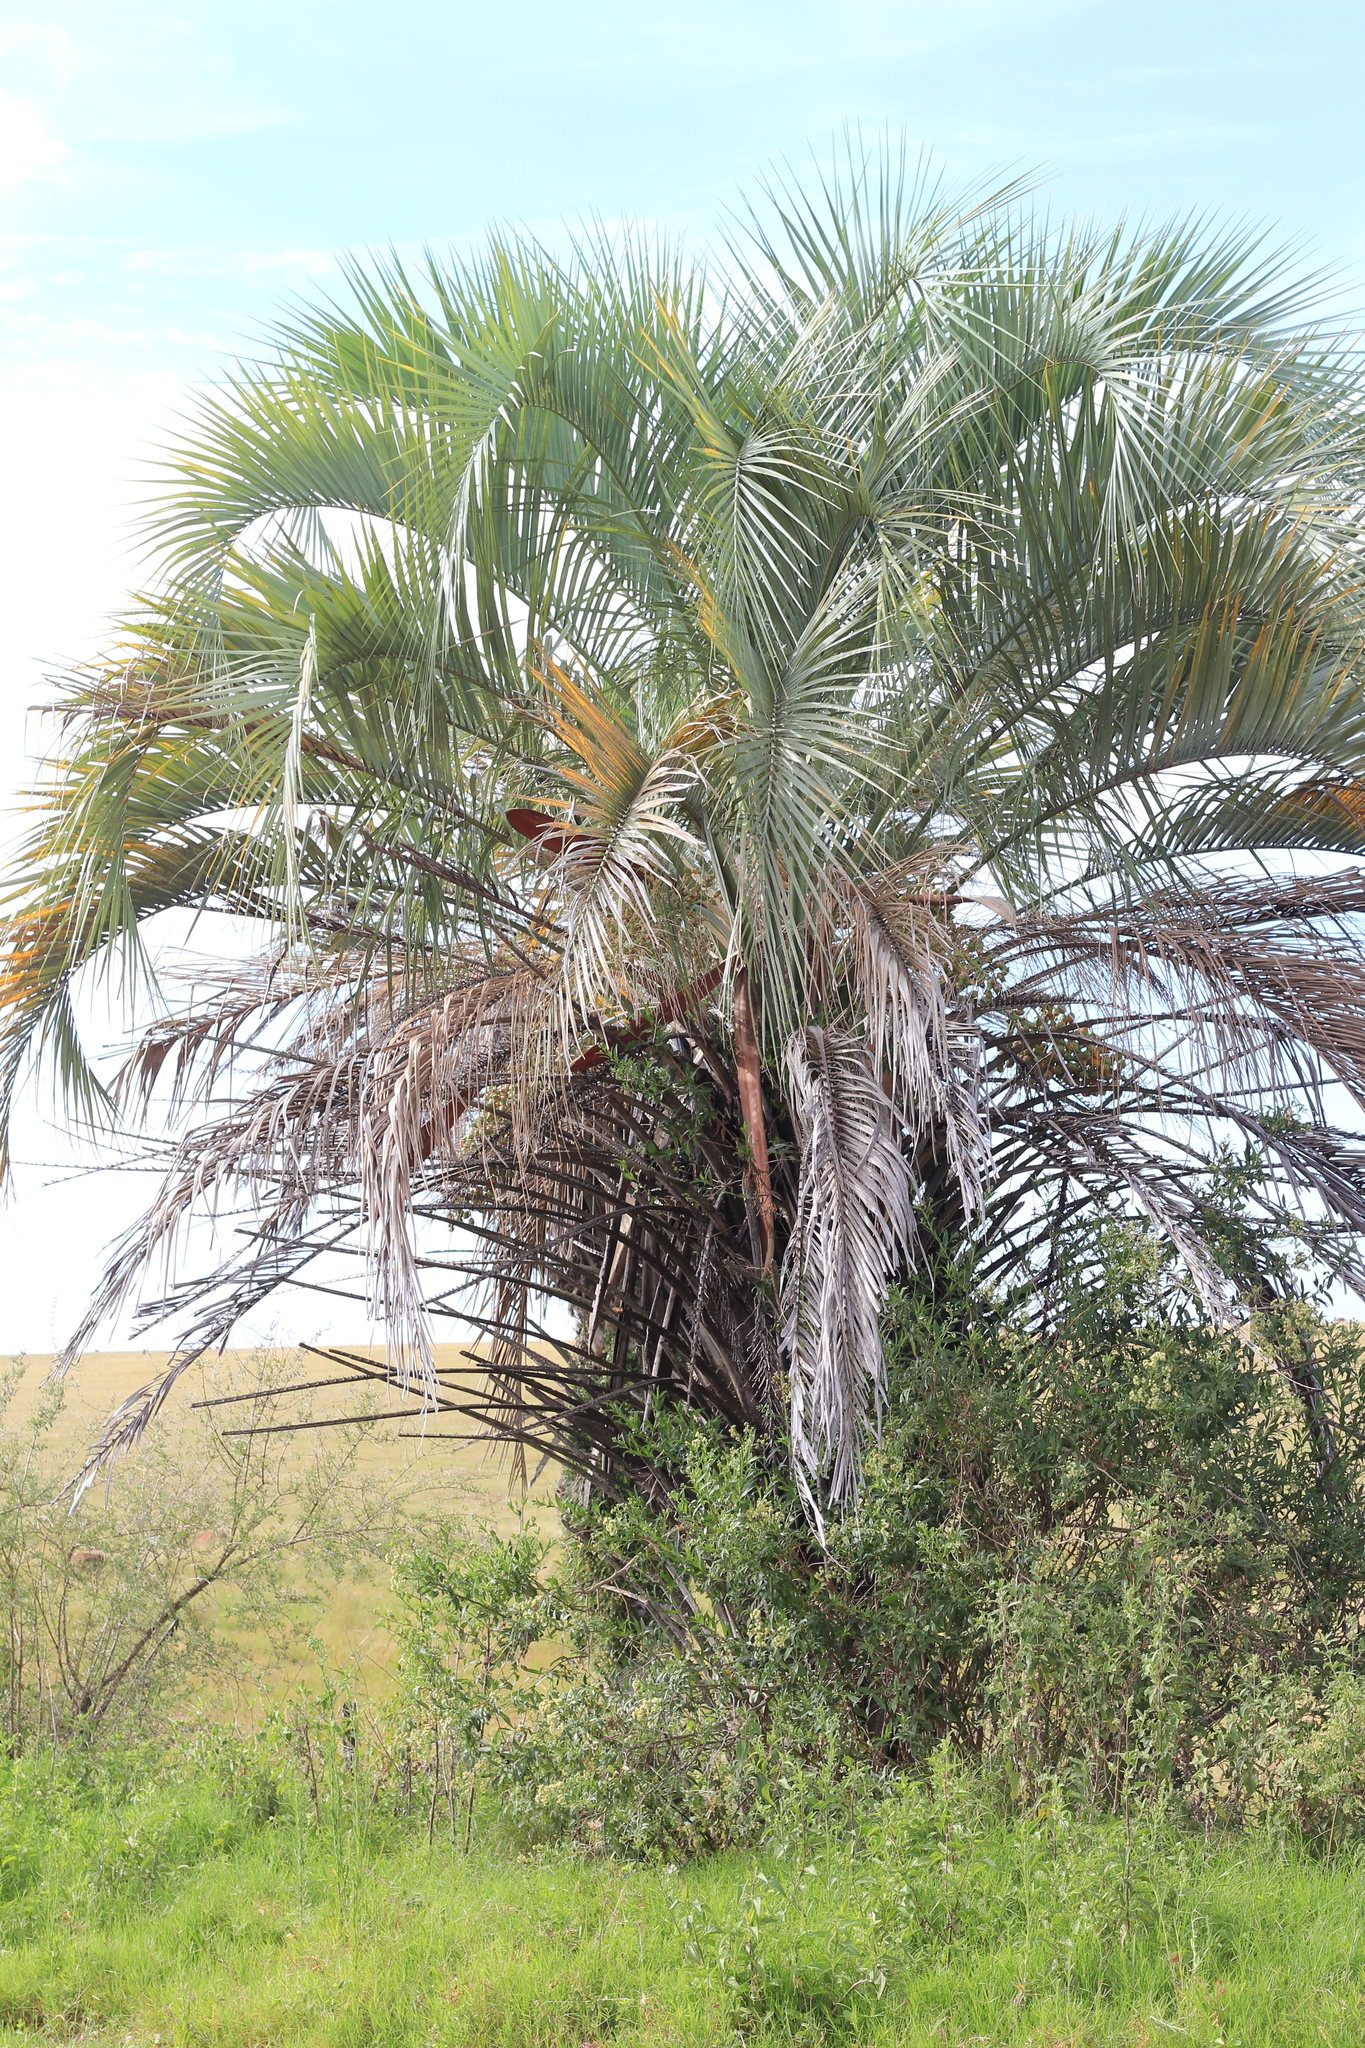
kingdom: Plantae
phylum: Tracheophyta
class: Liliopsida
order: Arecales
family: Arecaceae
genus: Butia
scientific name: Butia yatay
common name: Yatay palm
